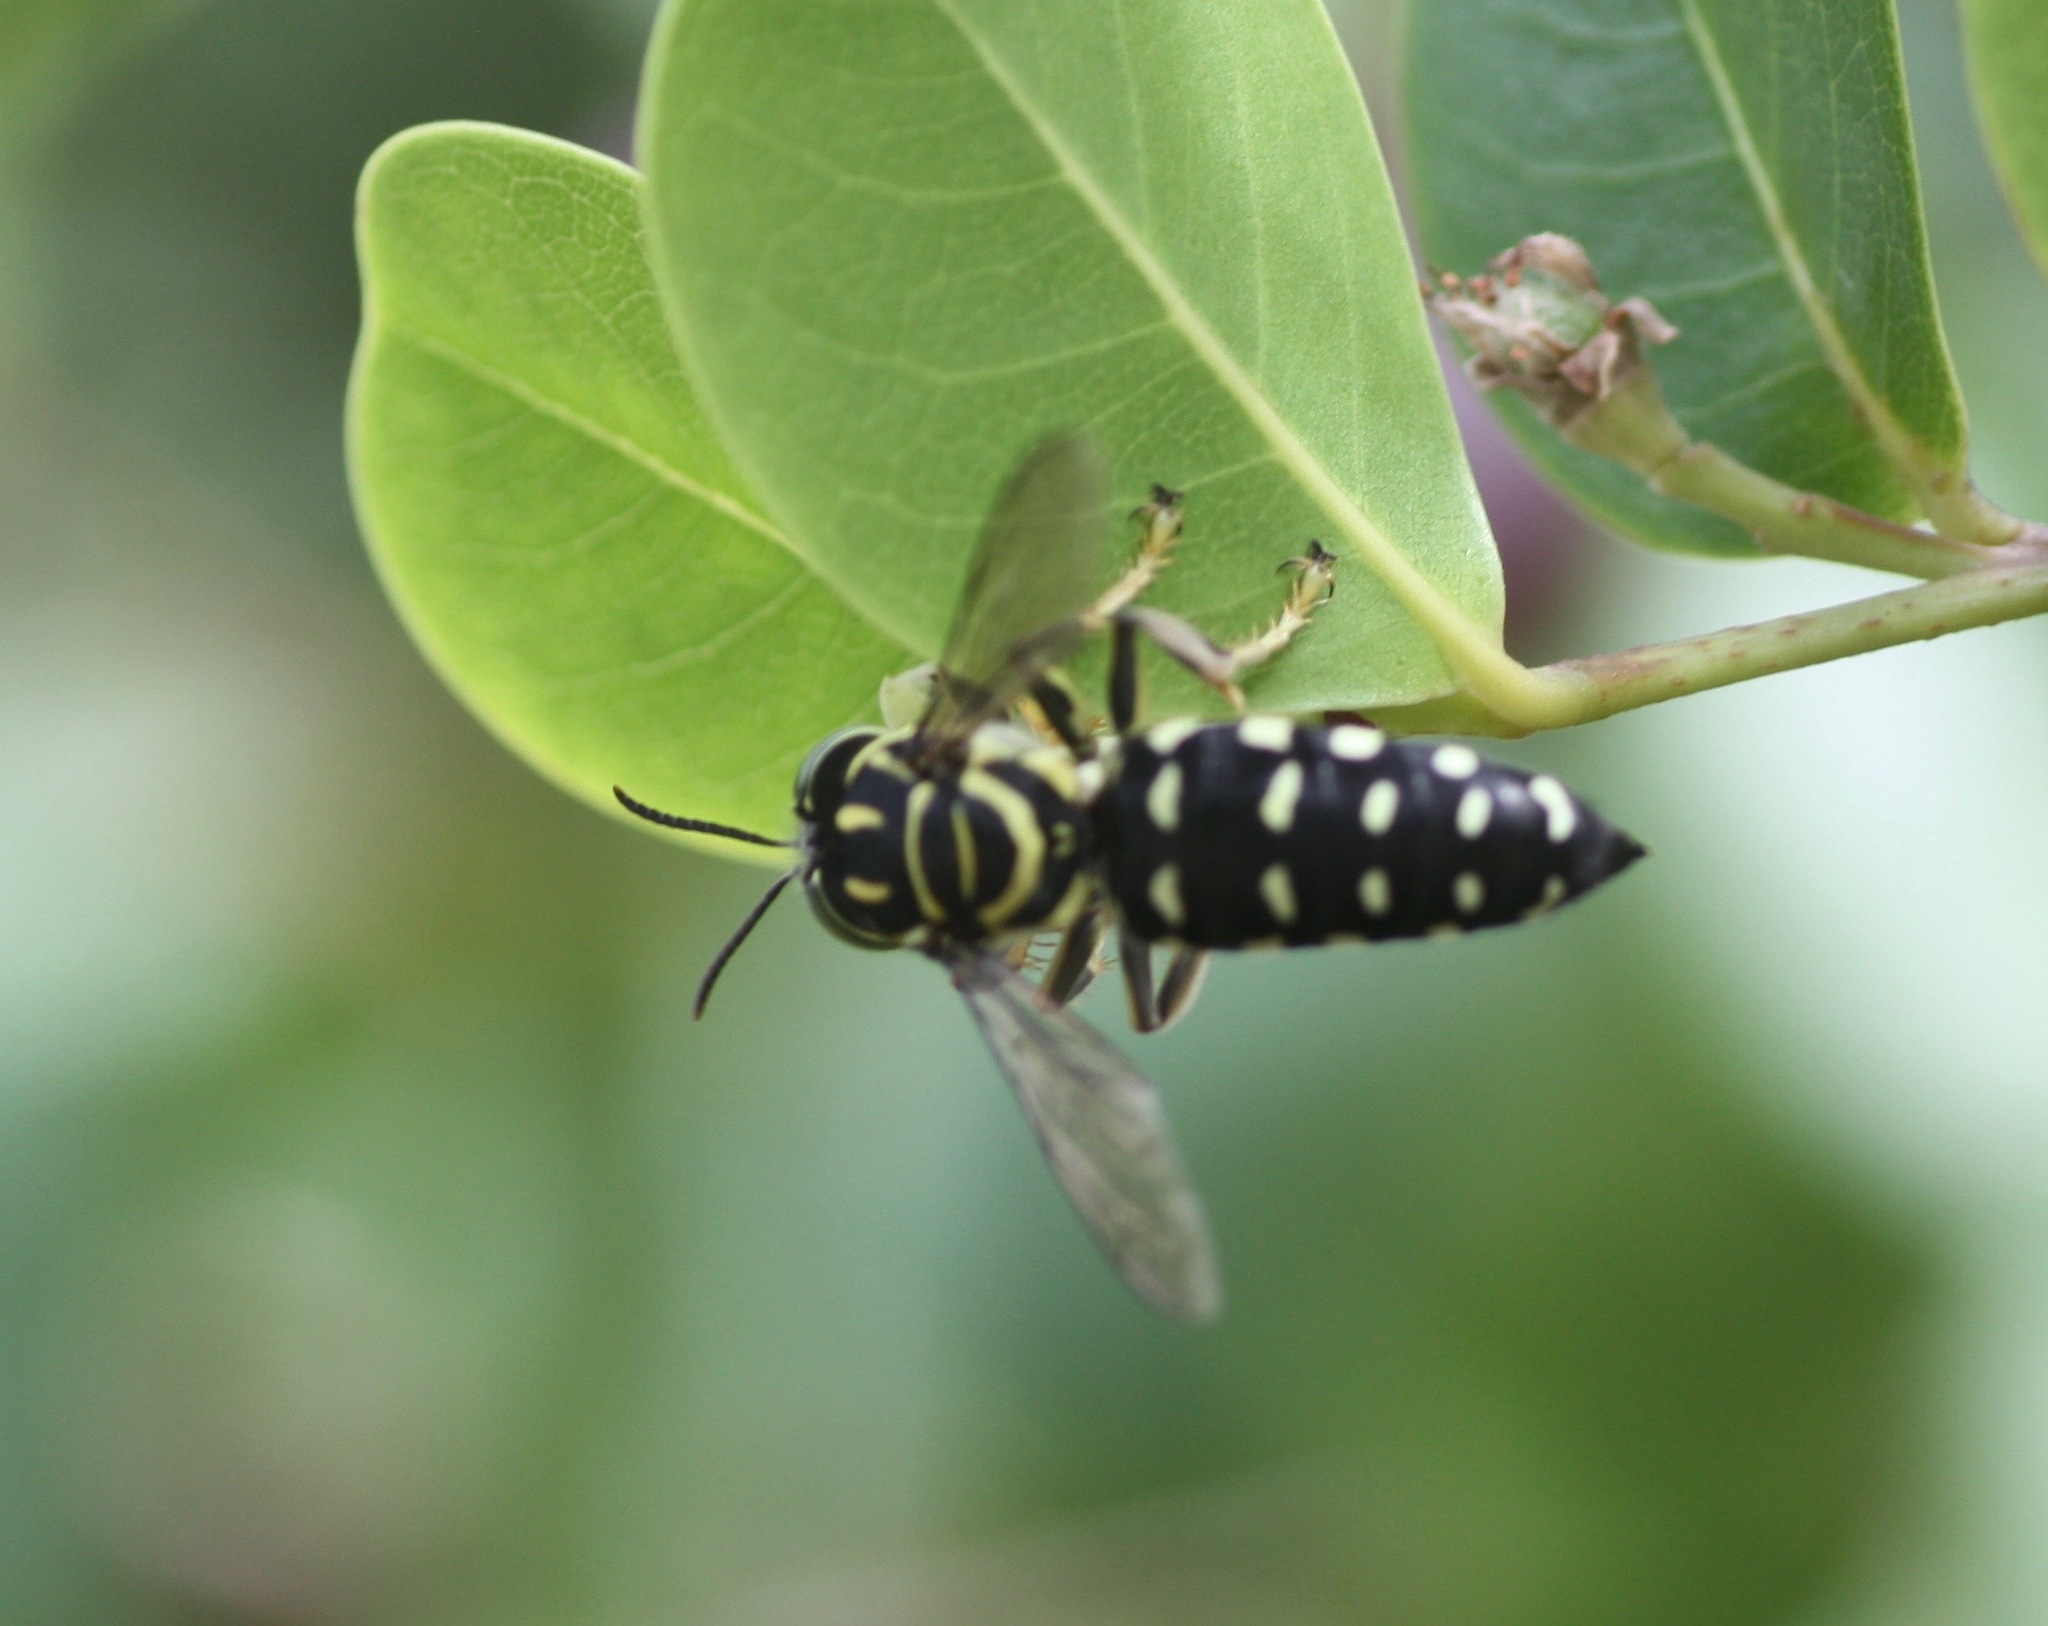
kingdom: Animalia
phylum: Arthropoda
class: Insecta
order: Hymenoptera
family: Crabronidae
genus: Stictia
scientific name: Stictia maculata
